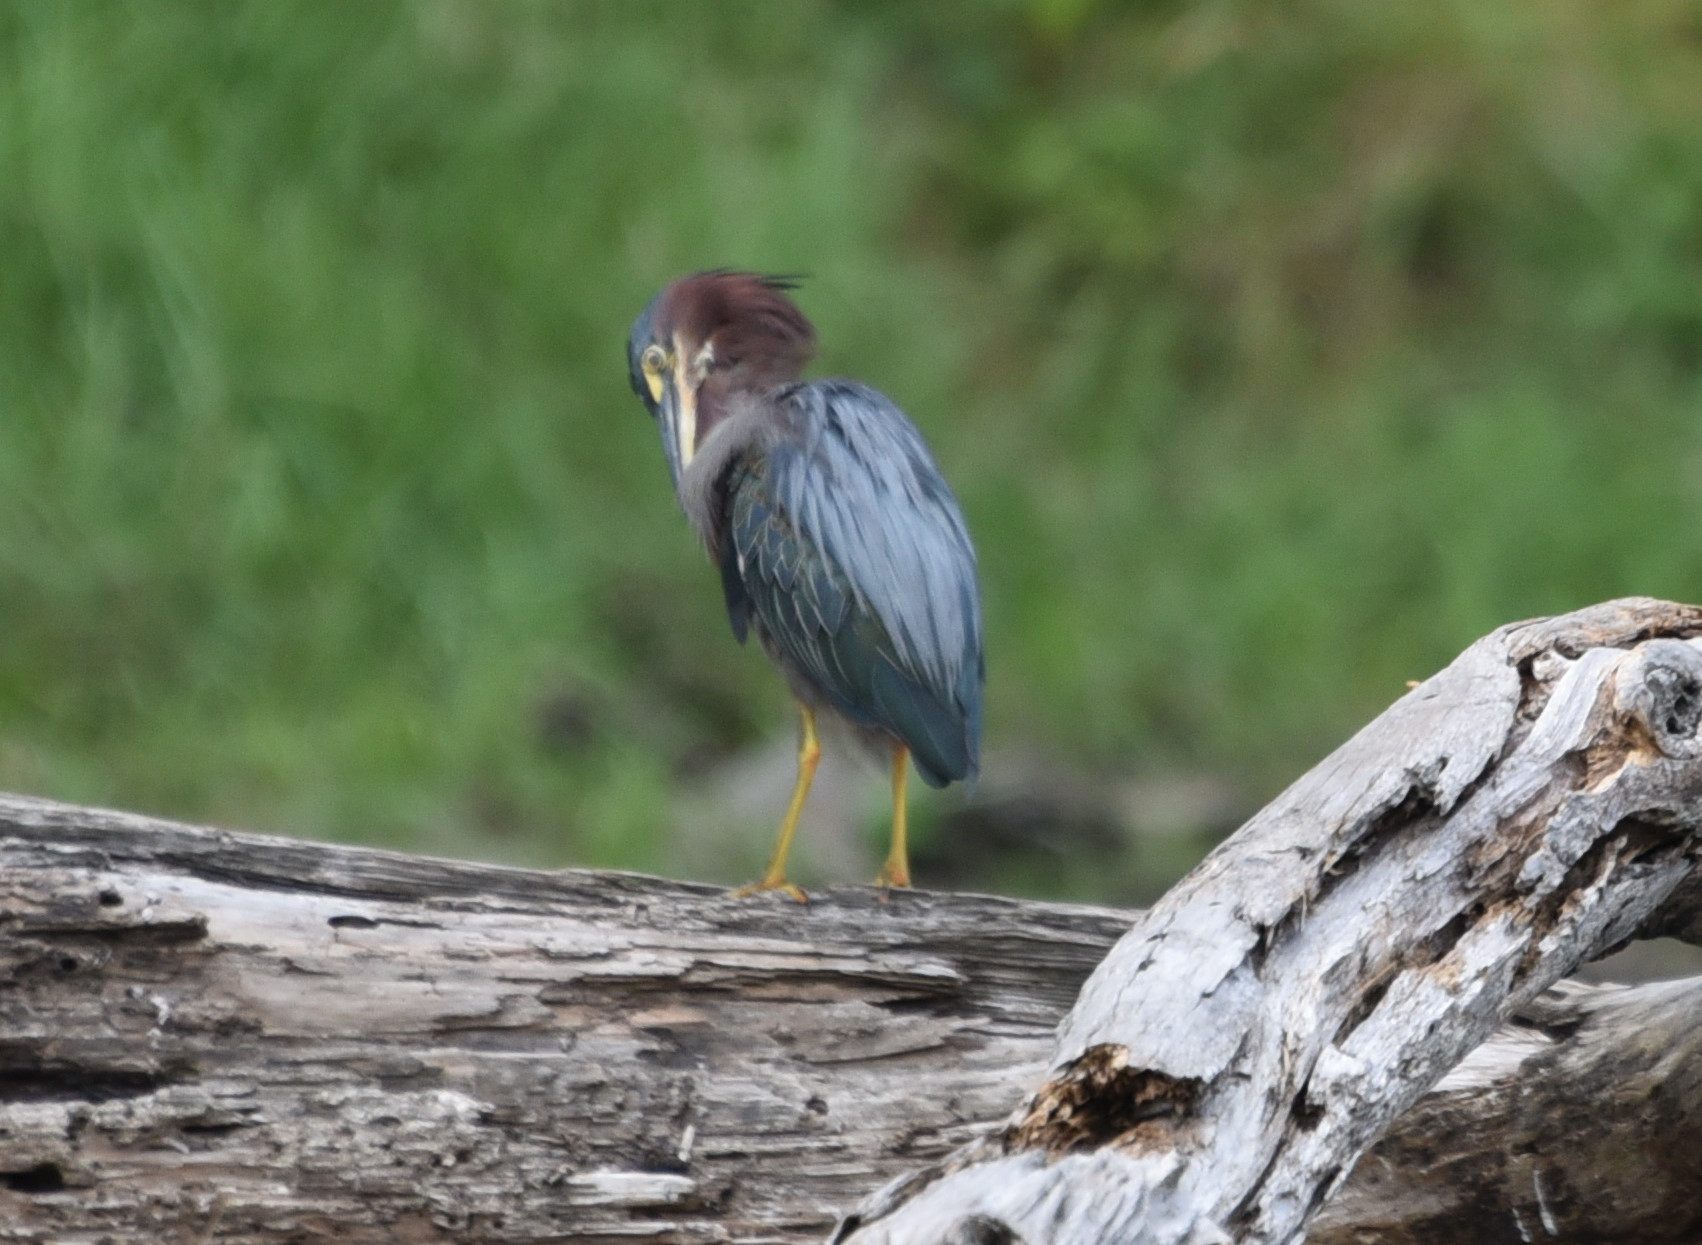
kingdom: Animalia
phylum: Chordata
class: Aves
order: Pelecaniformes
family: Ardeidae
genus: Butorides
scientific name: Butorides virescens
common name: Green heron
